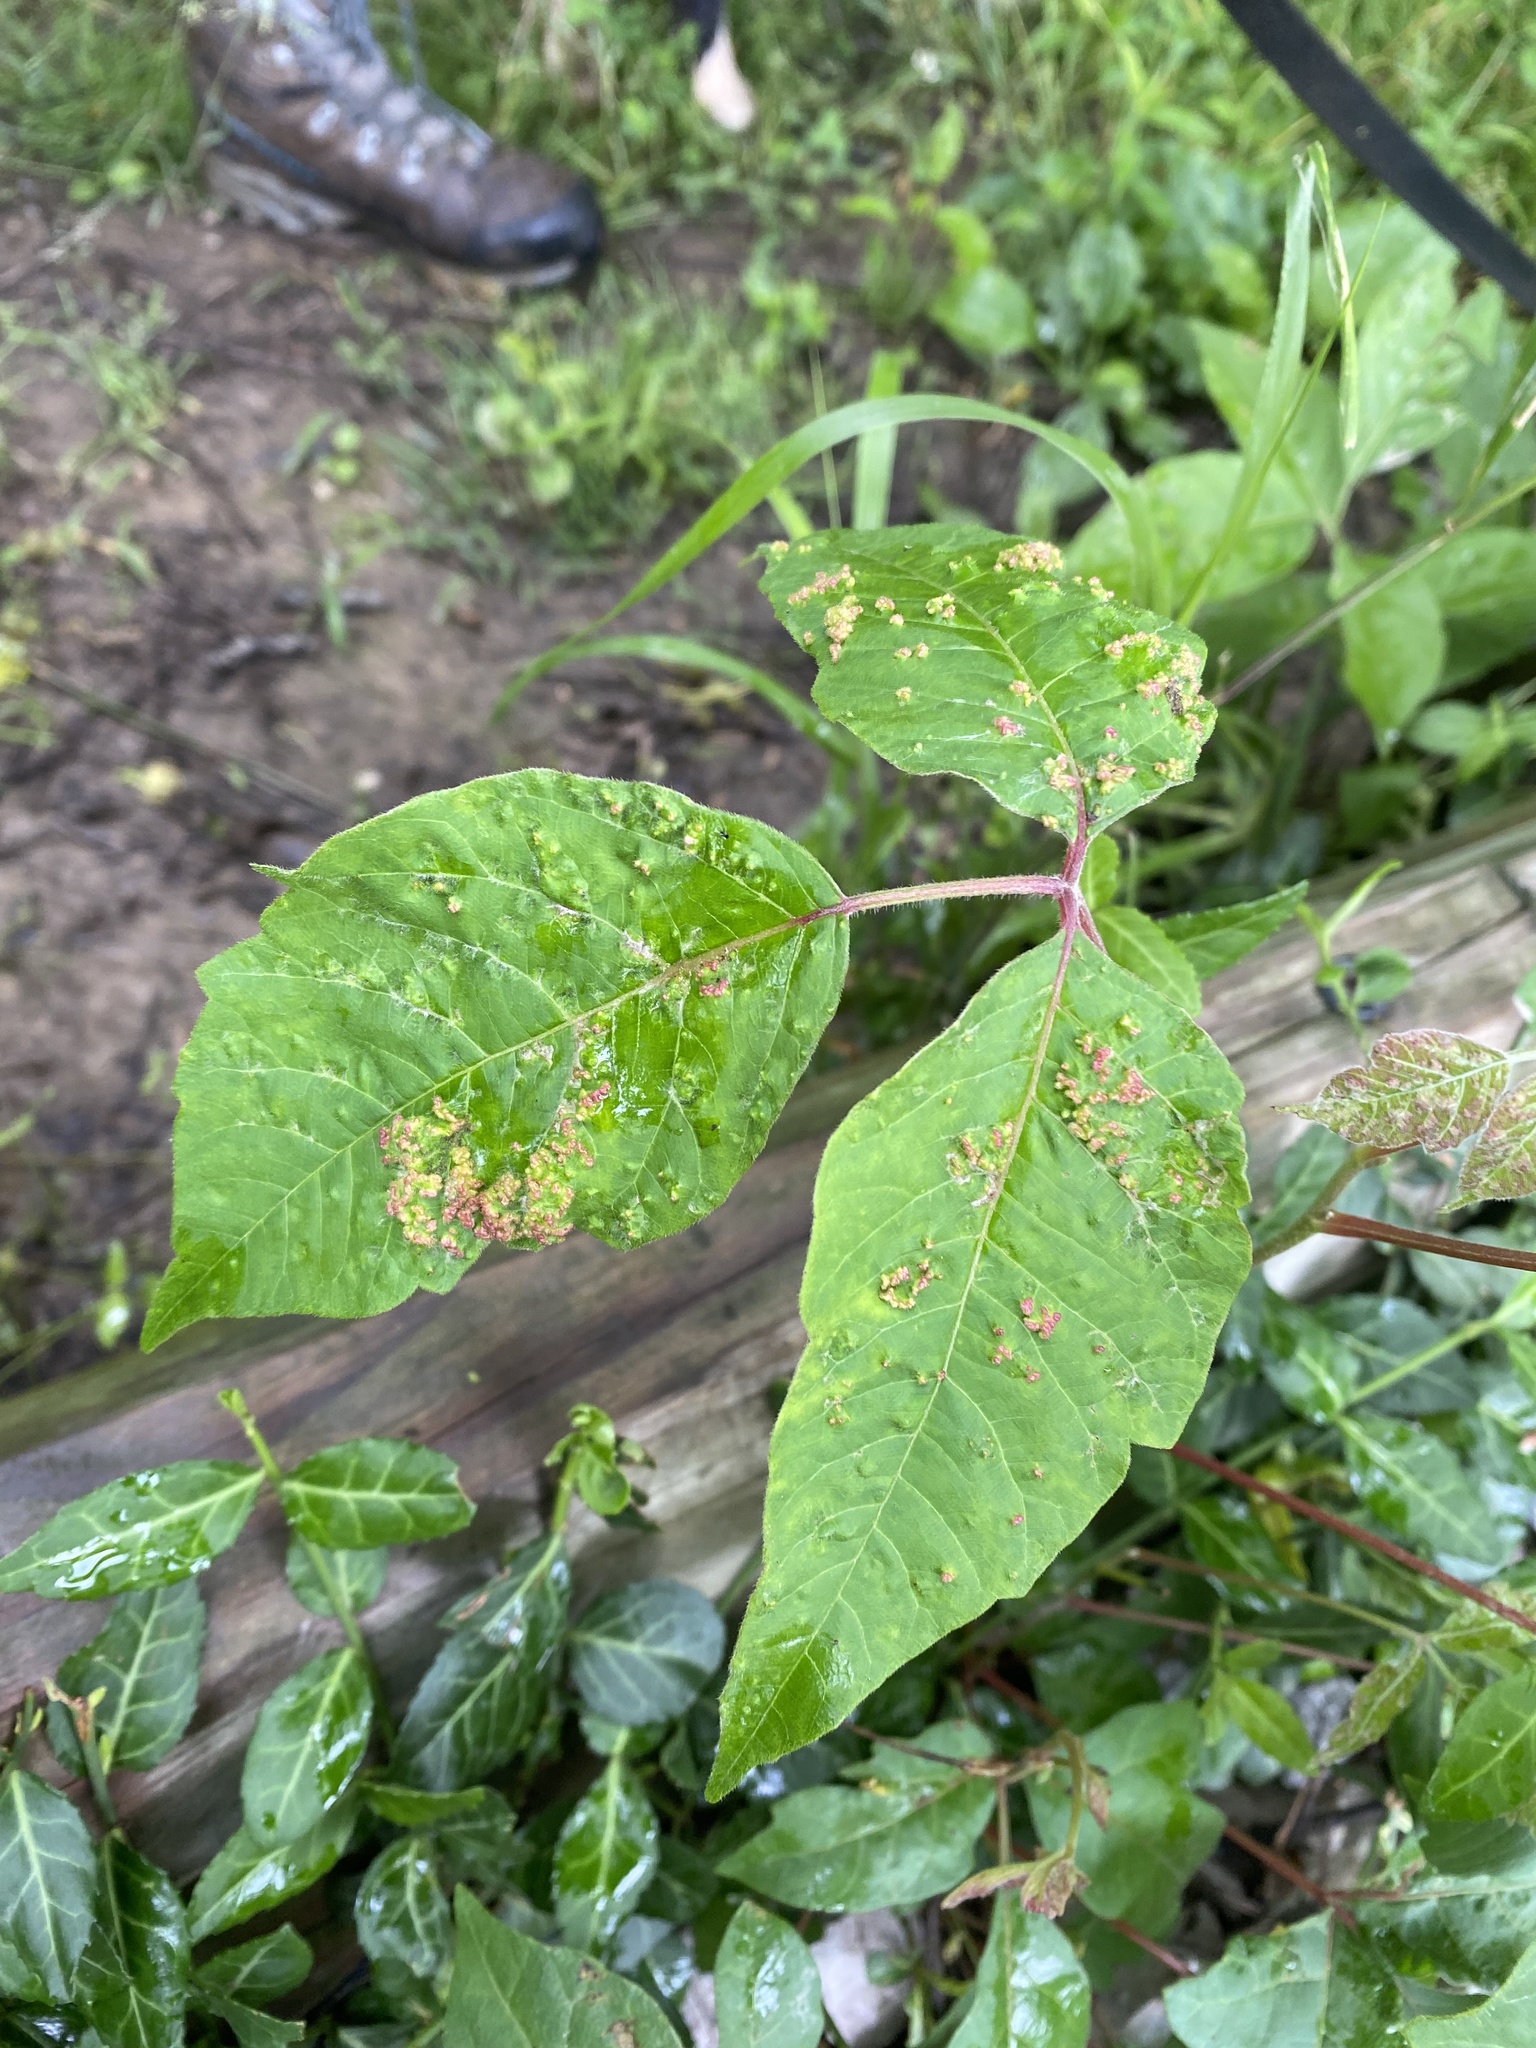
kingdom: Animalia
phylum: Arthropoda
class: Arachnida
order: Trombidiformes
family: Eriophyidae
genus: Aculops
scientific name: Aculops
